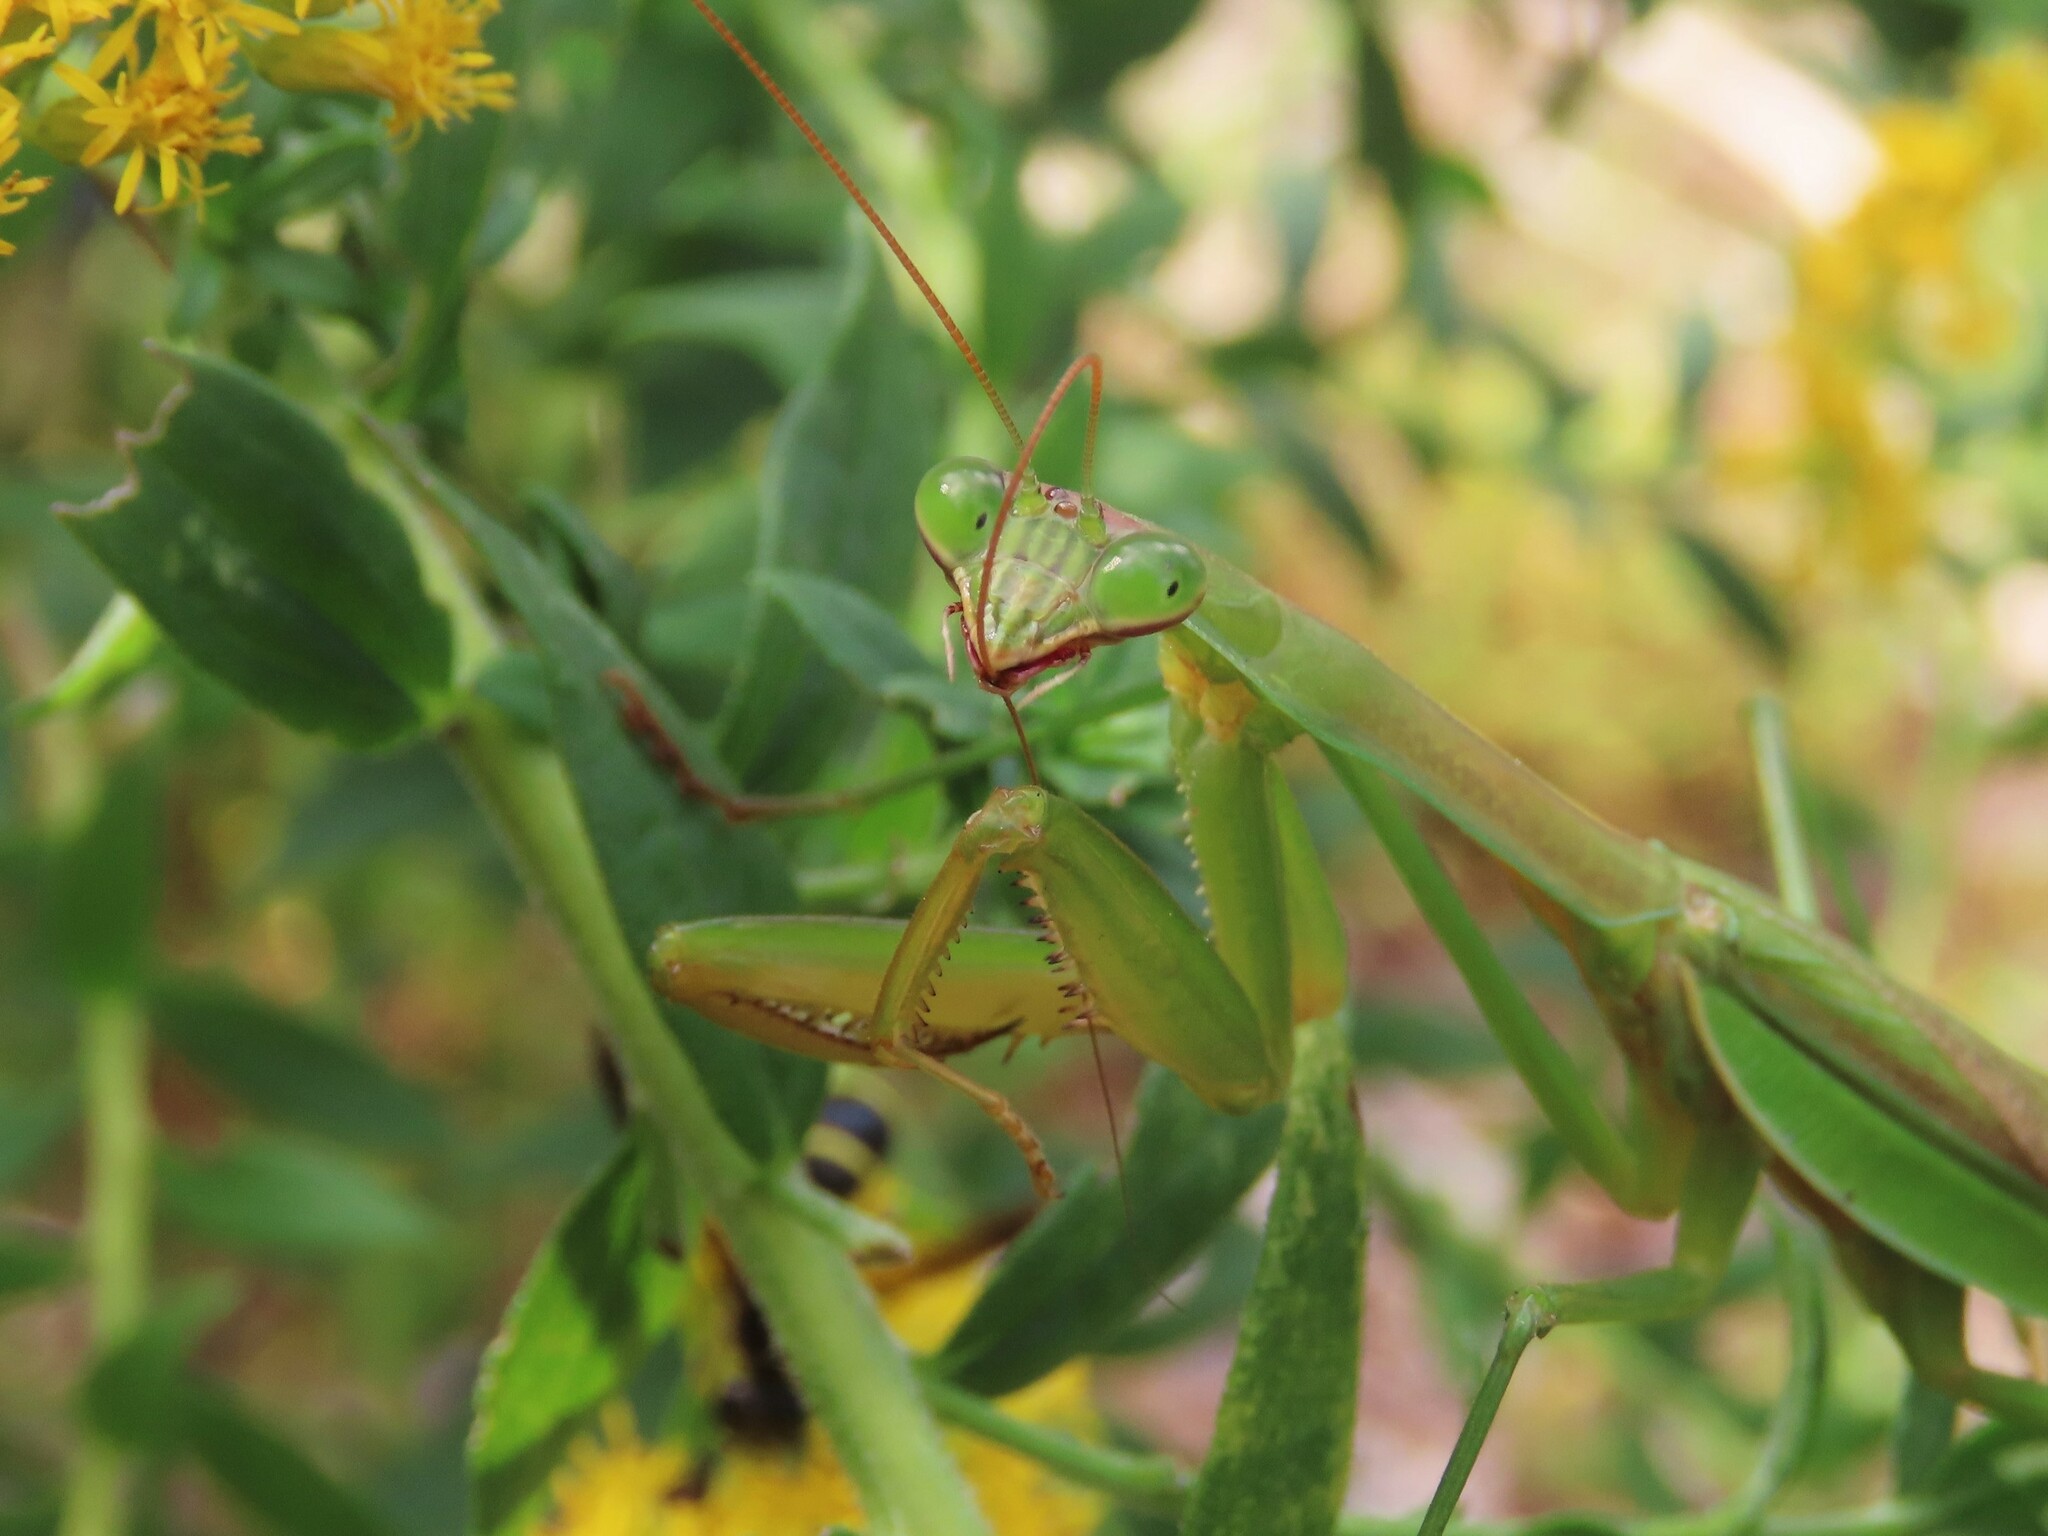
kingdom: Animalia
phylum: Arthropoda
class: Insecta
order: Mantodea
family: Mantidae
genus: Tenodera
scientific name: Tenodera sinensis
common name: Chinese mantis
